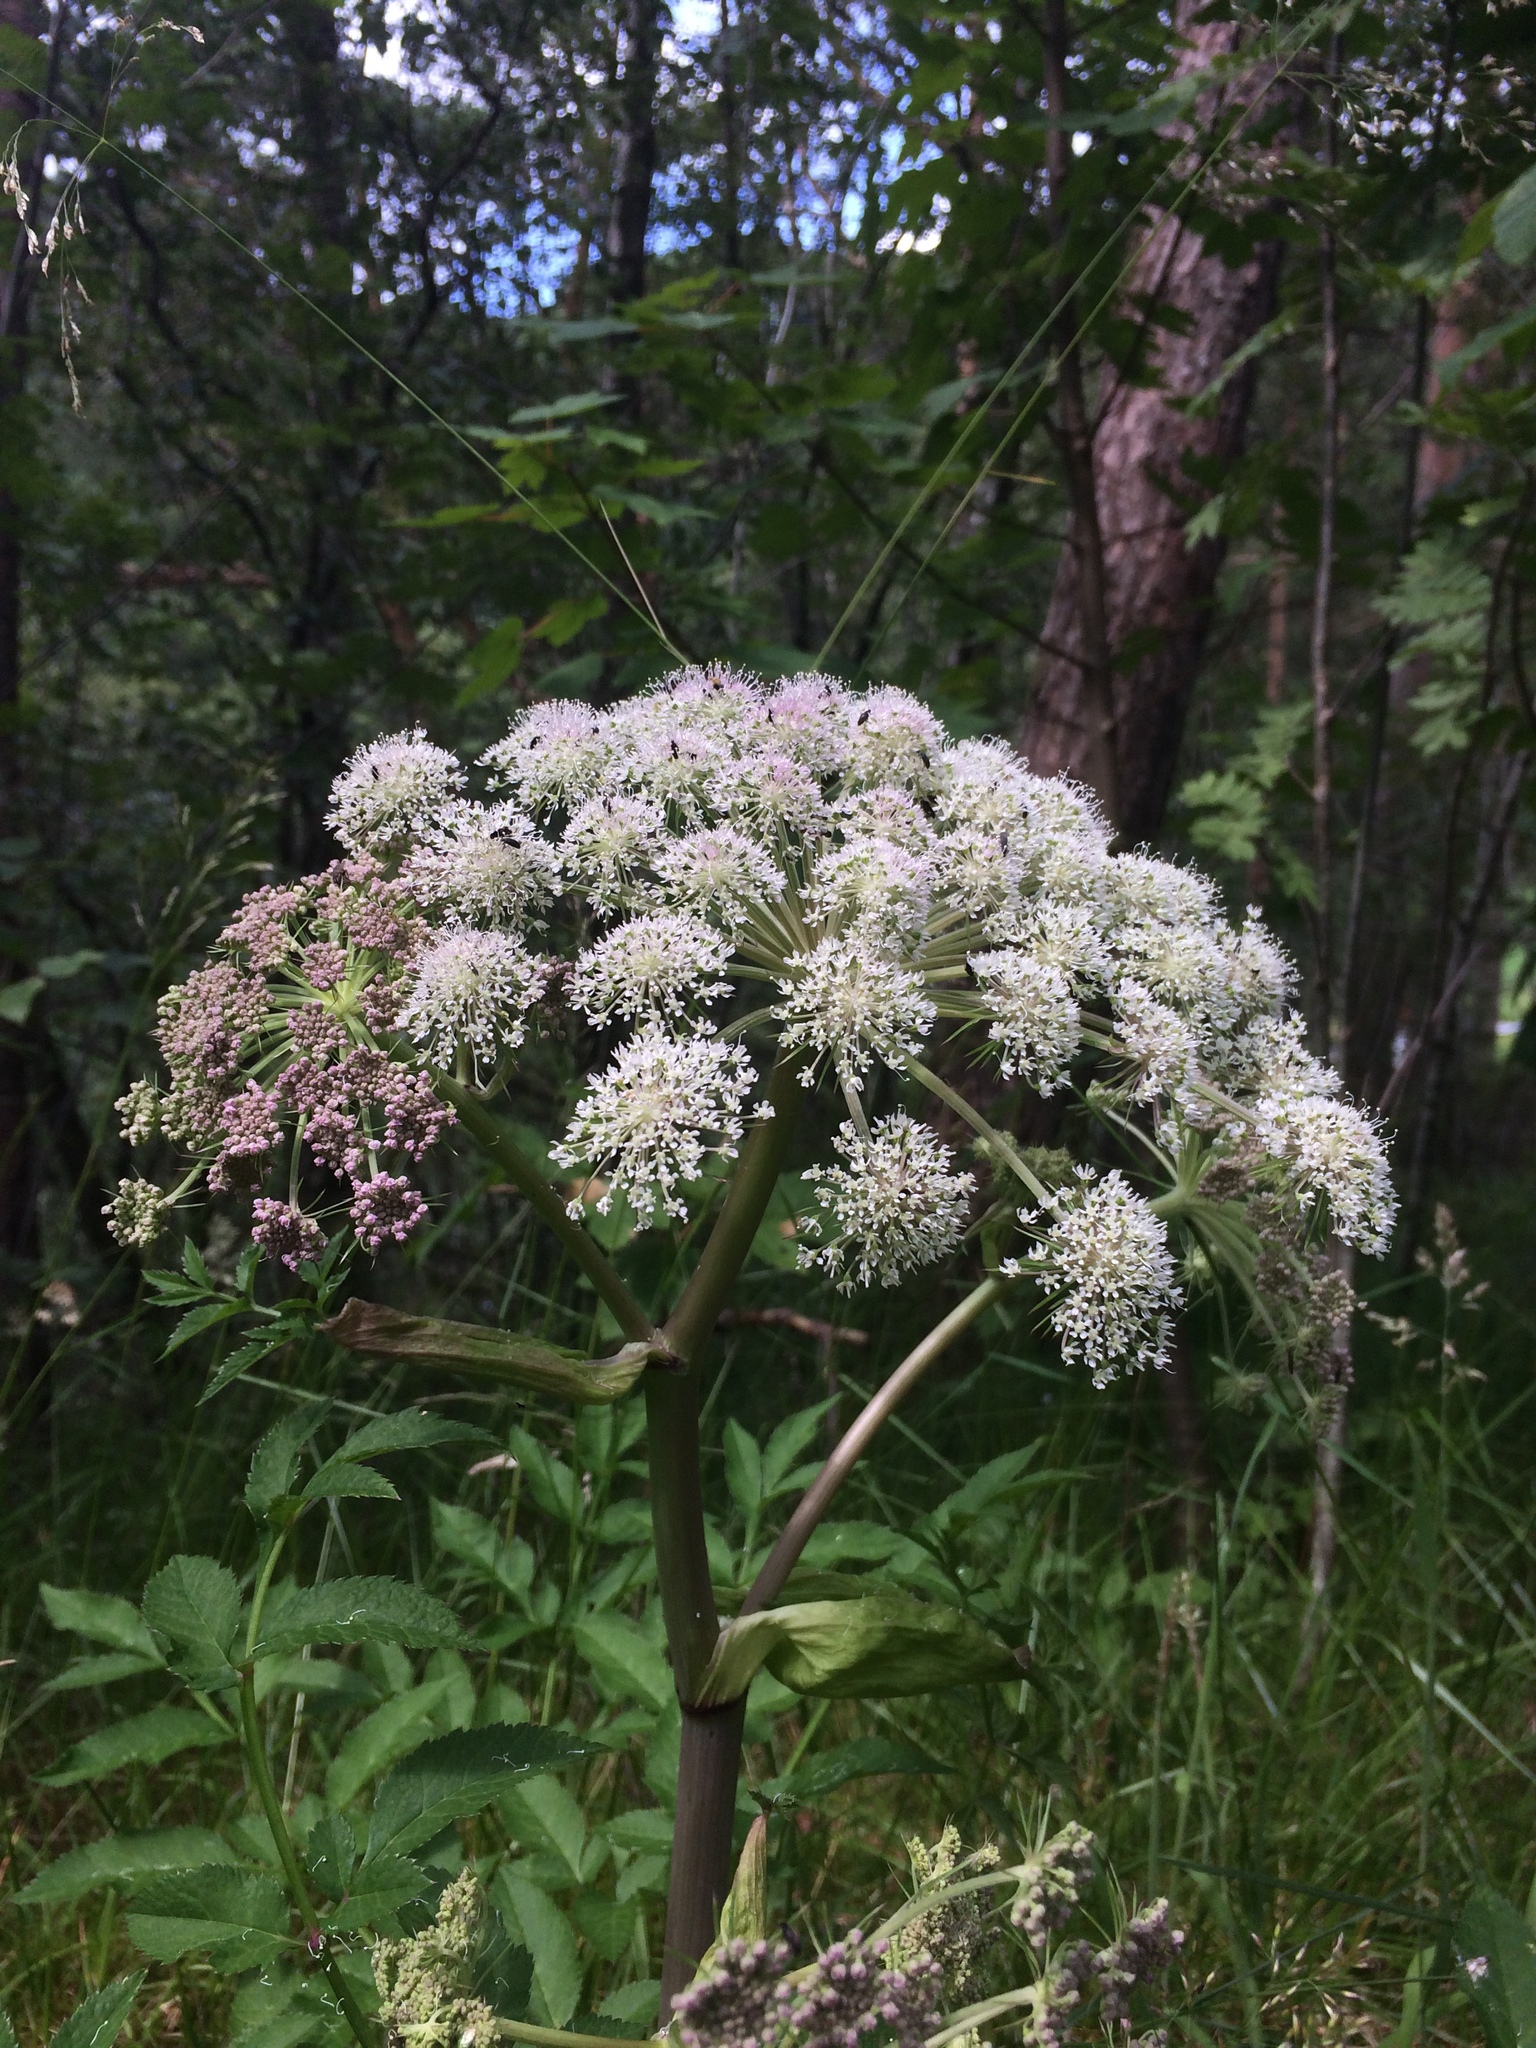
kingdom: Plantae
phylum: Tracheophyta
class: Magnoliopsida
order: Apiales
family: Apiaceae
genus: Angelica
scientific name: Angelica sylvestris
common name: Wild angelica
